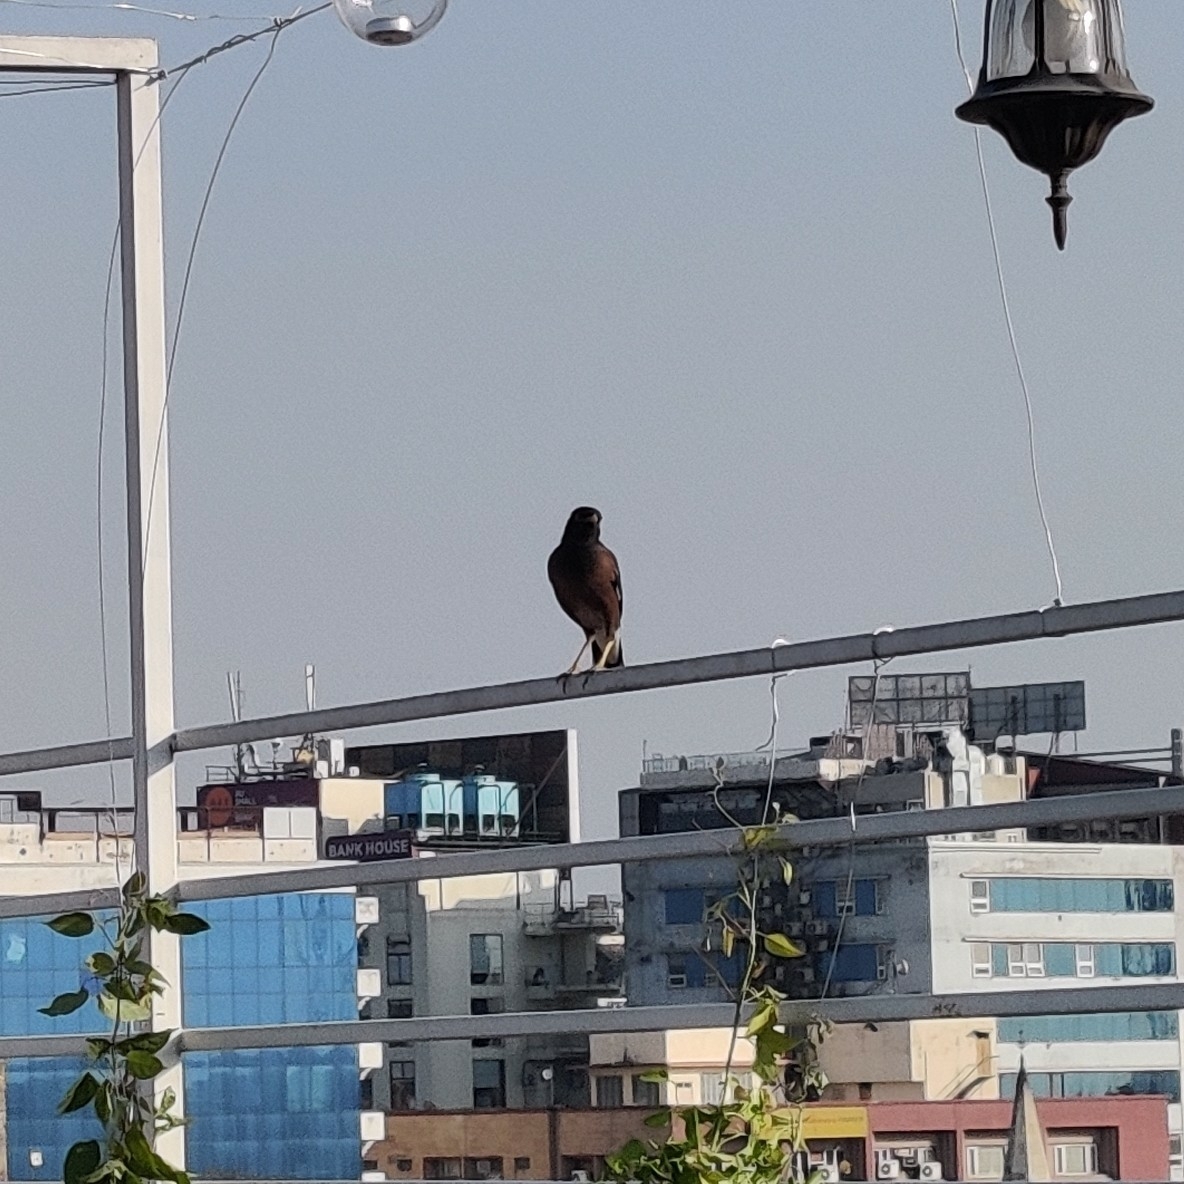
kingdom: Animalia
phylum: Chordata
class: Aves
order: Passeriformes
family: Sturnidae
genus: Acridotheres
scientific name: Acridotheres tristis
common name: Common myna
